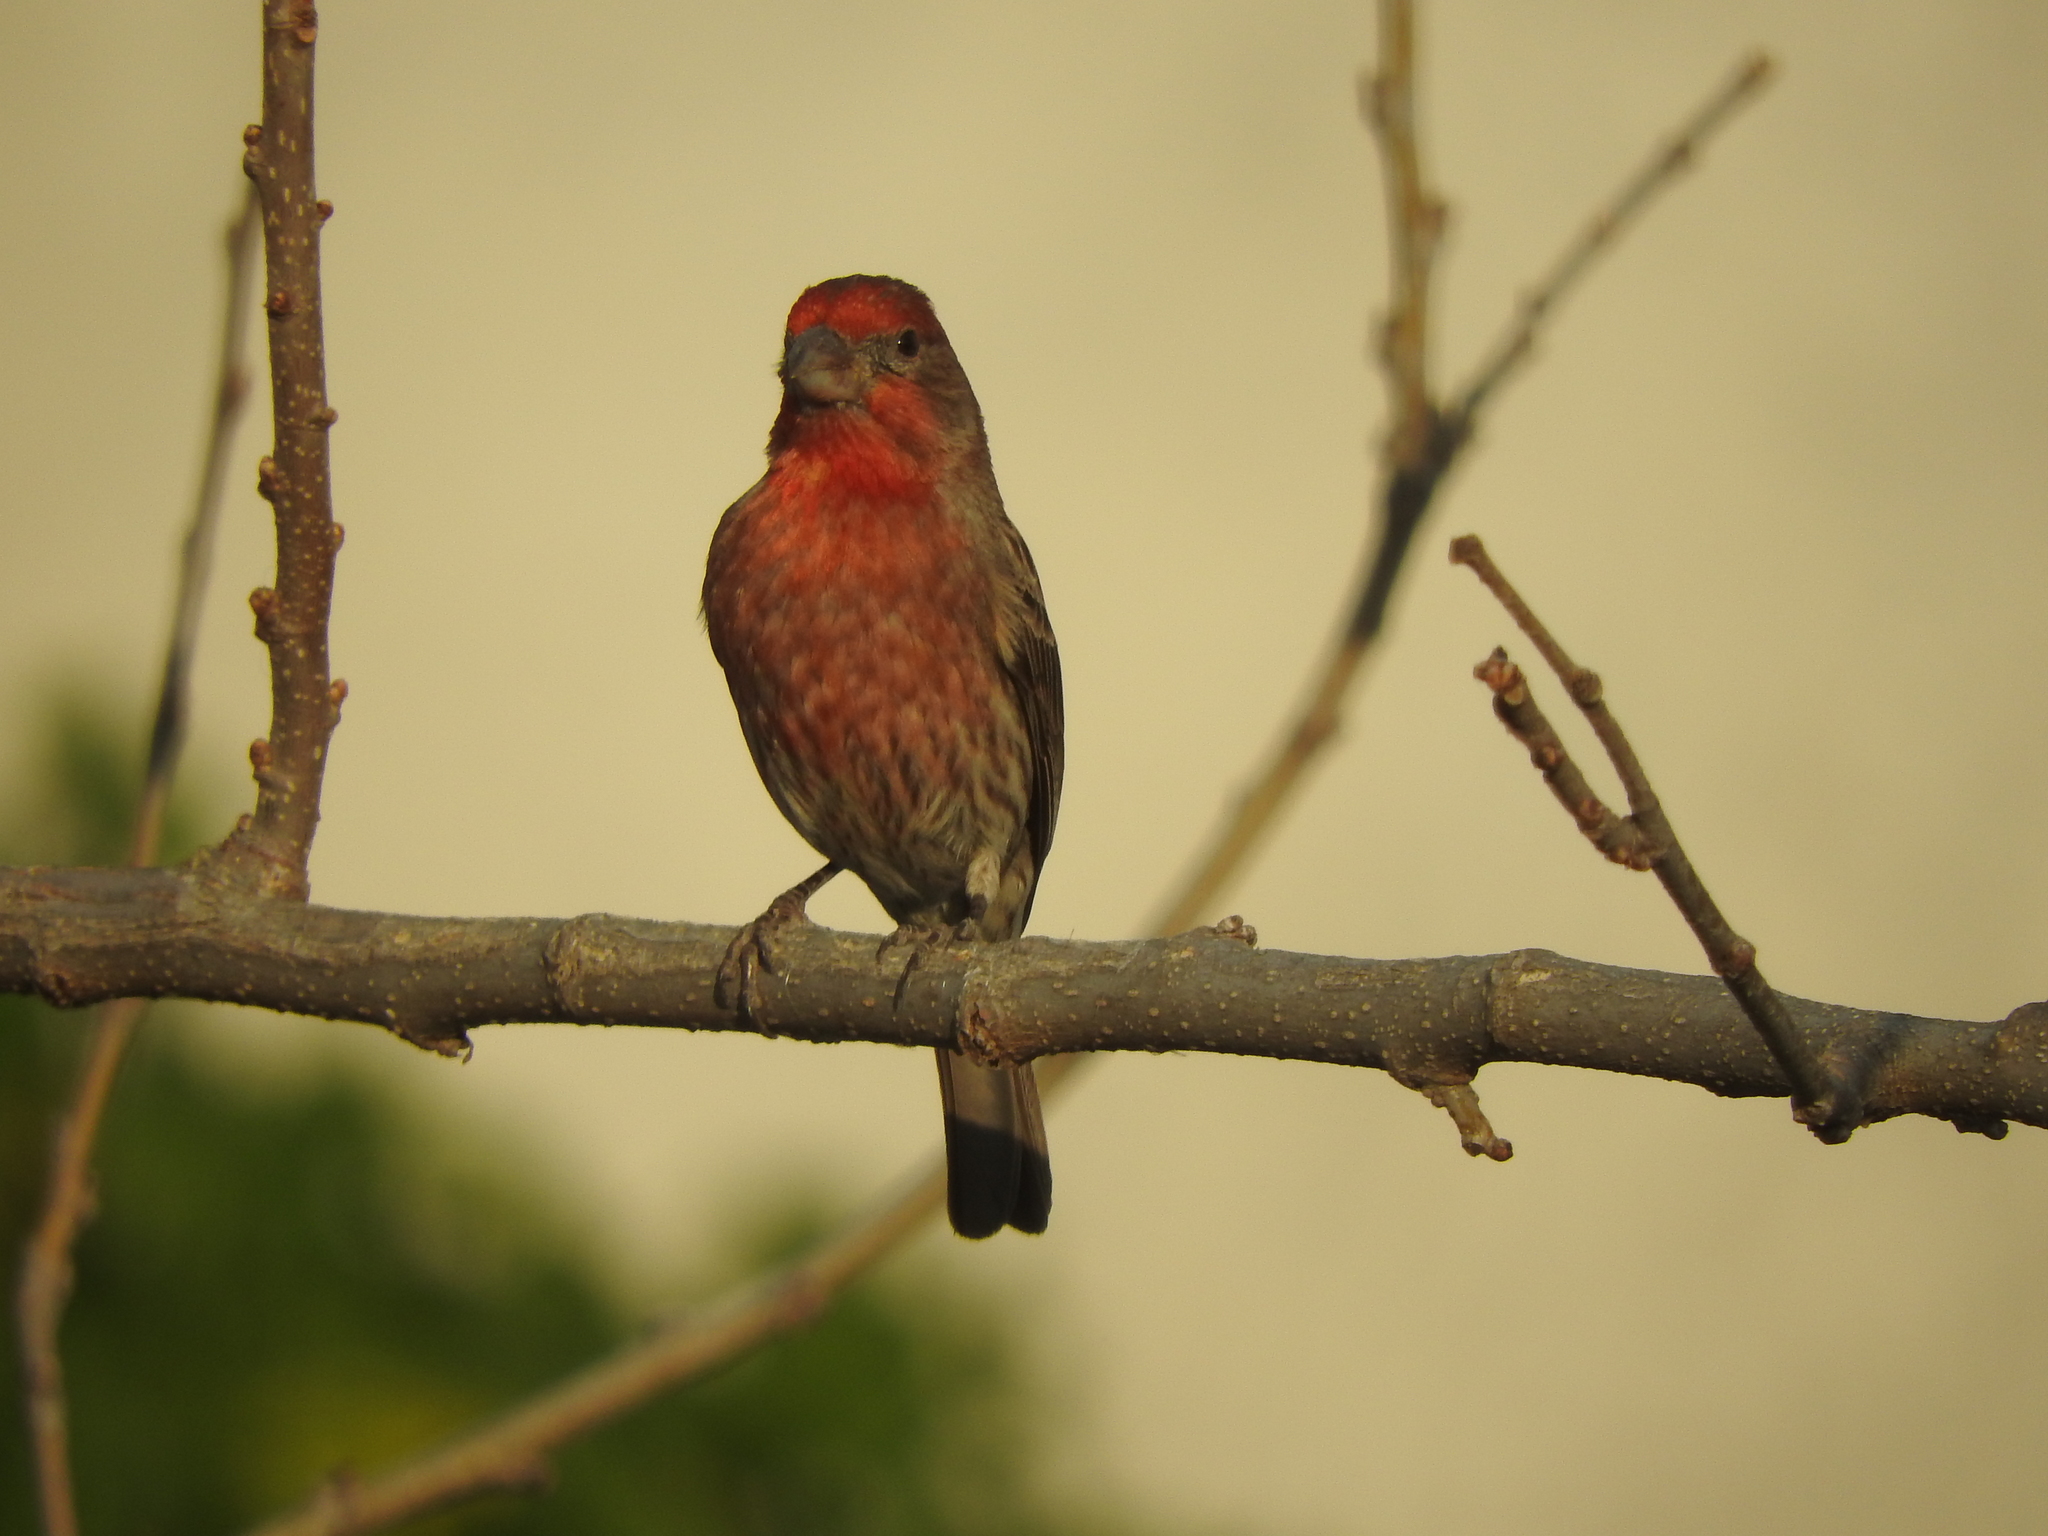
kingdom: Animalia
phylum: Chordata
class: Aves
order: Passeriformes
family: Fringillidae
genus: Haemorhous
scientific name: Haemorhous mexicanus
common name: House finch
